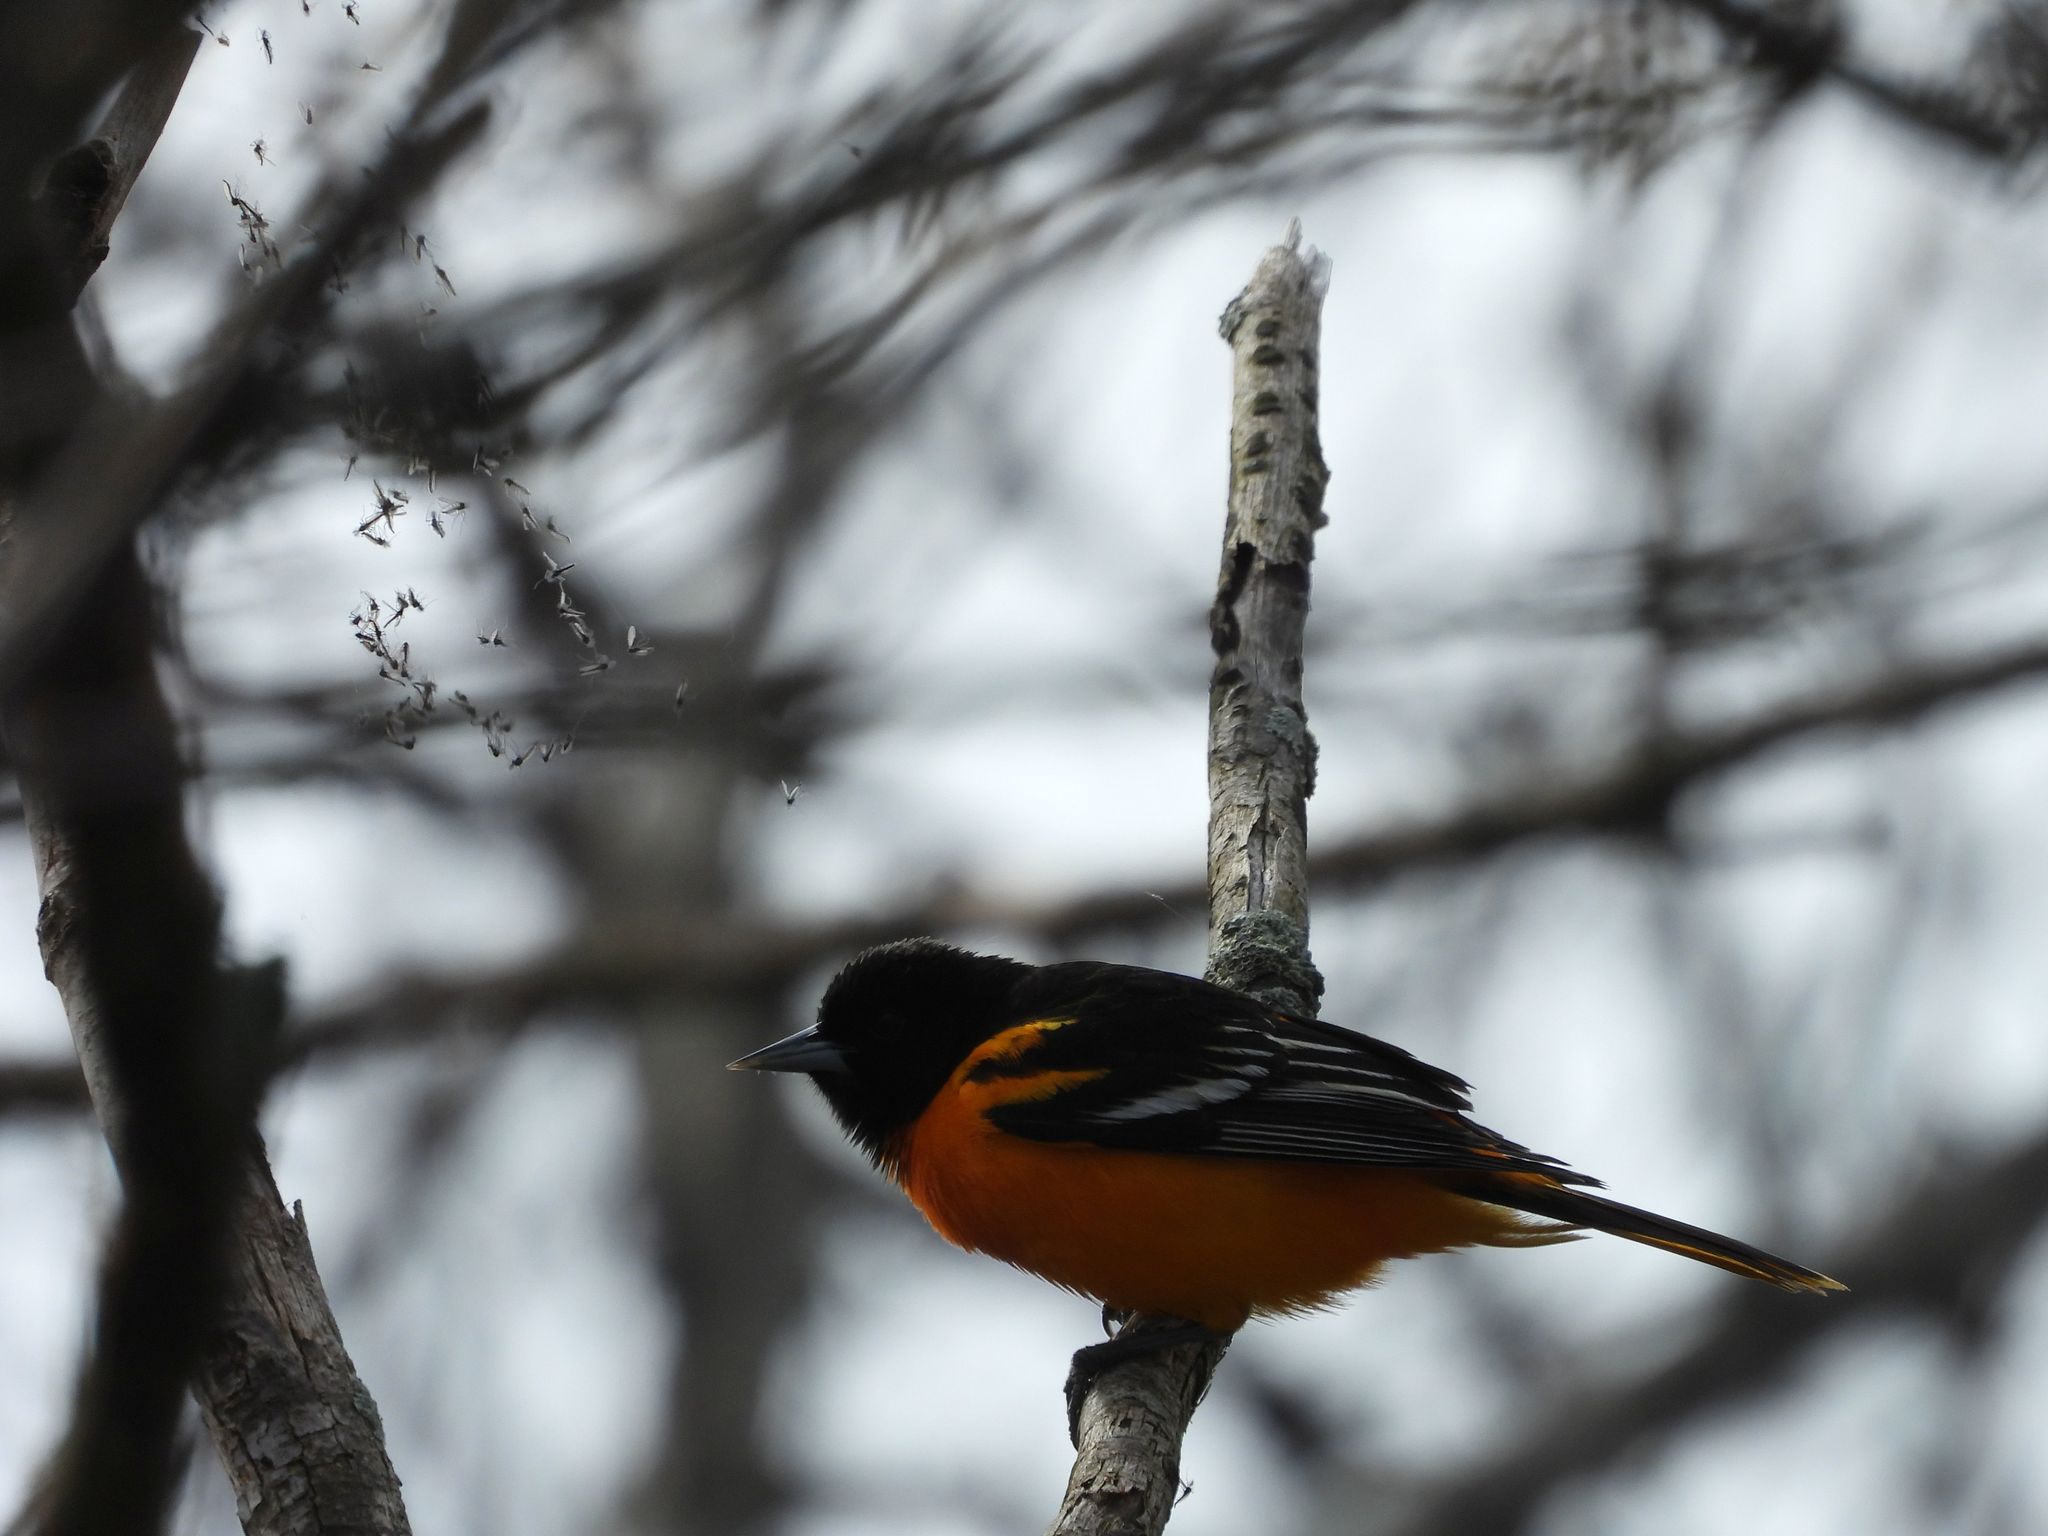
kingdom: Animalia
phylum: Chordata
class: Aves
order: Passeriformes
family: Icteridae
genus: Icterus
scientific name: Icterus galbula
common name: Baltimore oriole
